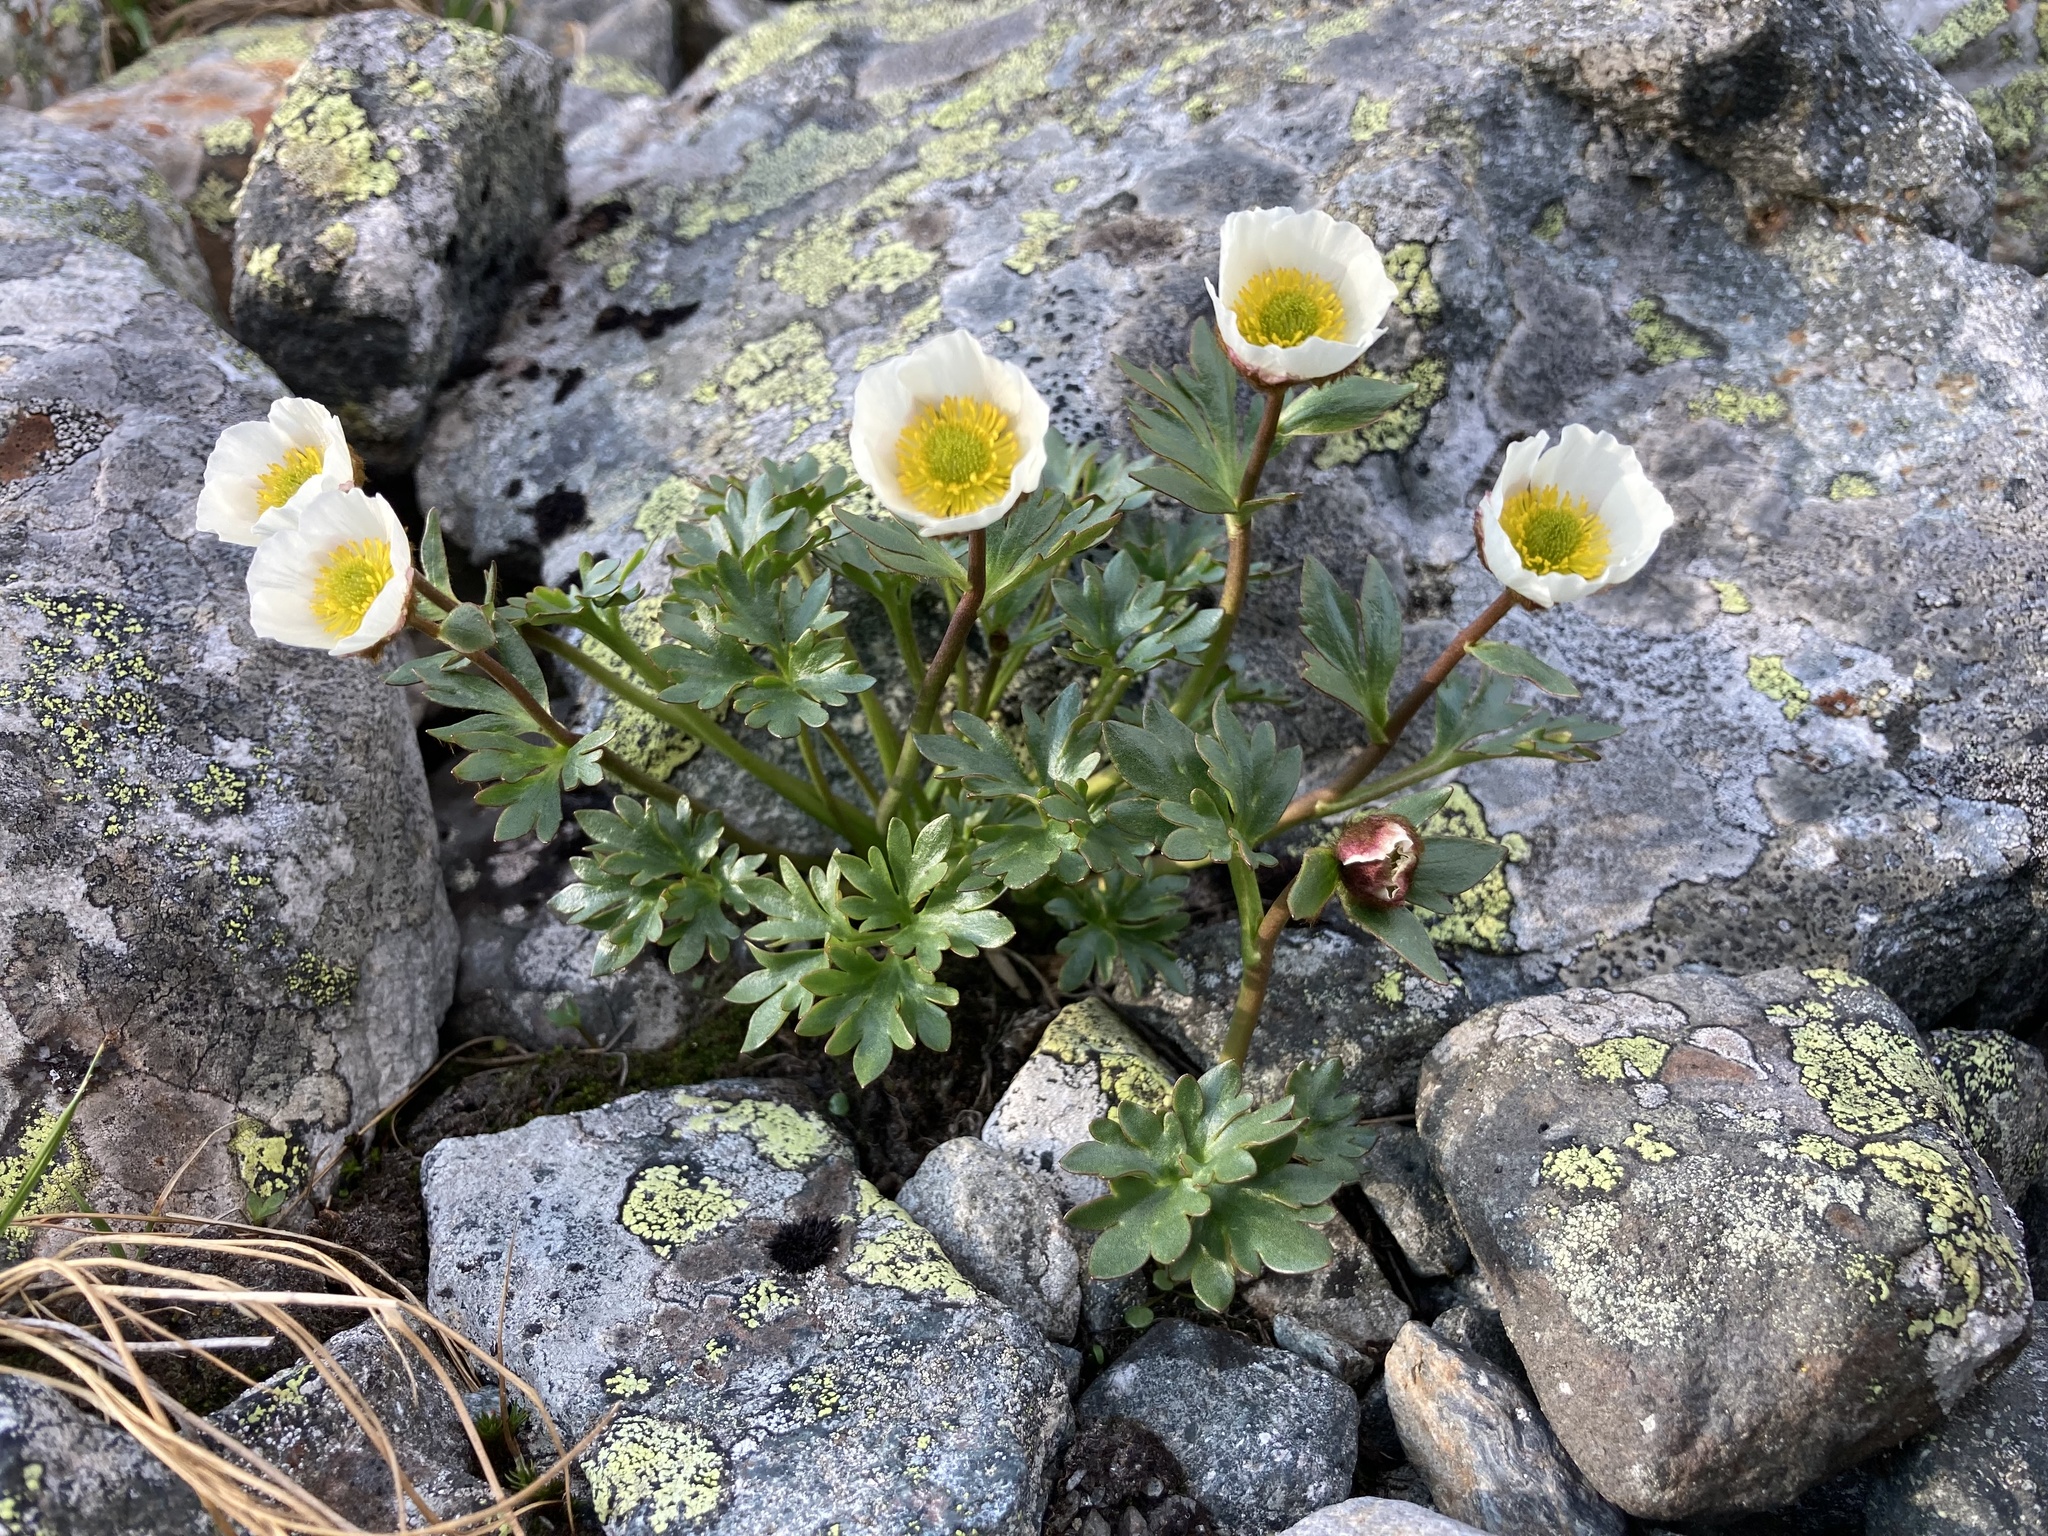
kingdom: Plantae
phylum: Tracheophyta
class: Magnoliopsida
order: Ranunculales
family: Ranunculaceae
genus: Ranunculus
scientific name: Ranunculus glacialis
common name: Glacier buttercup
